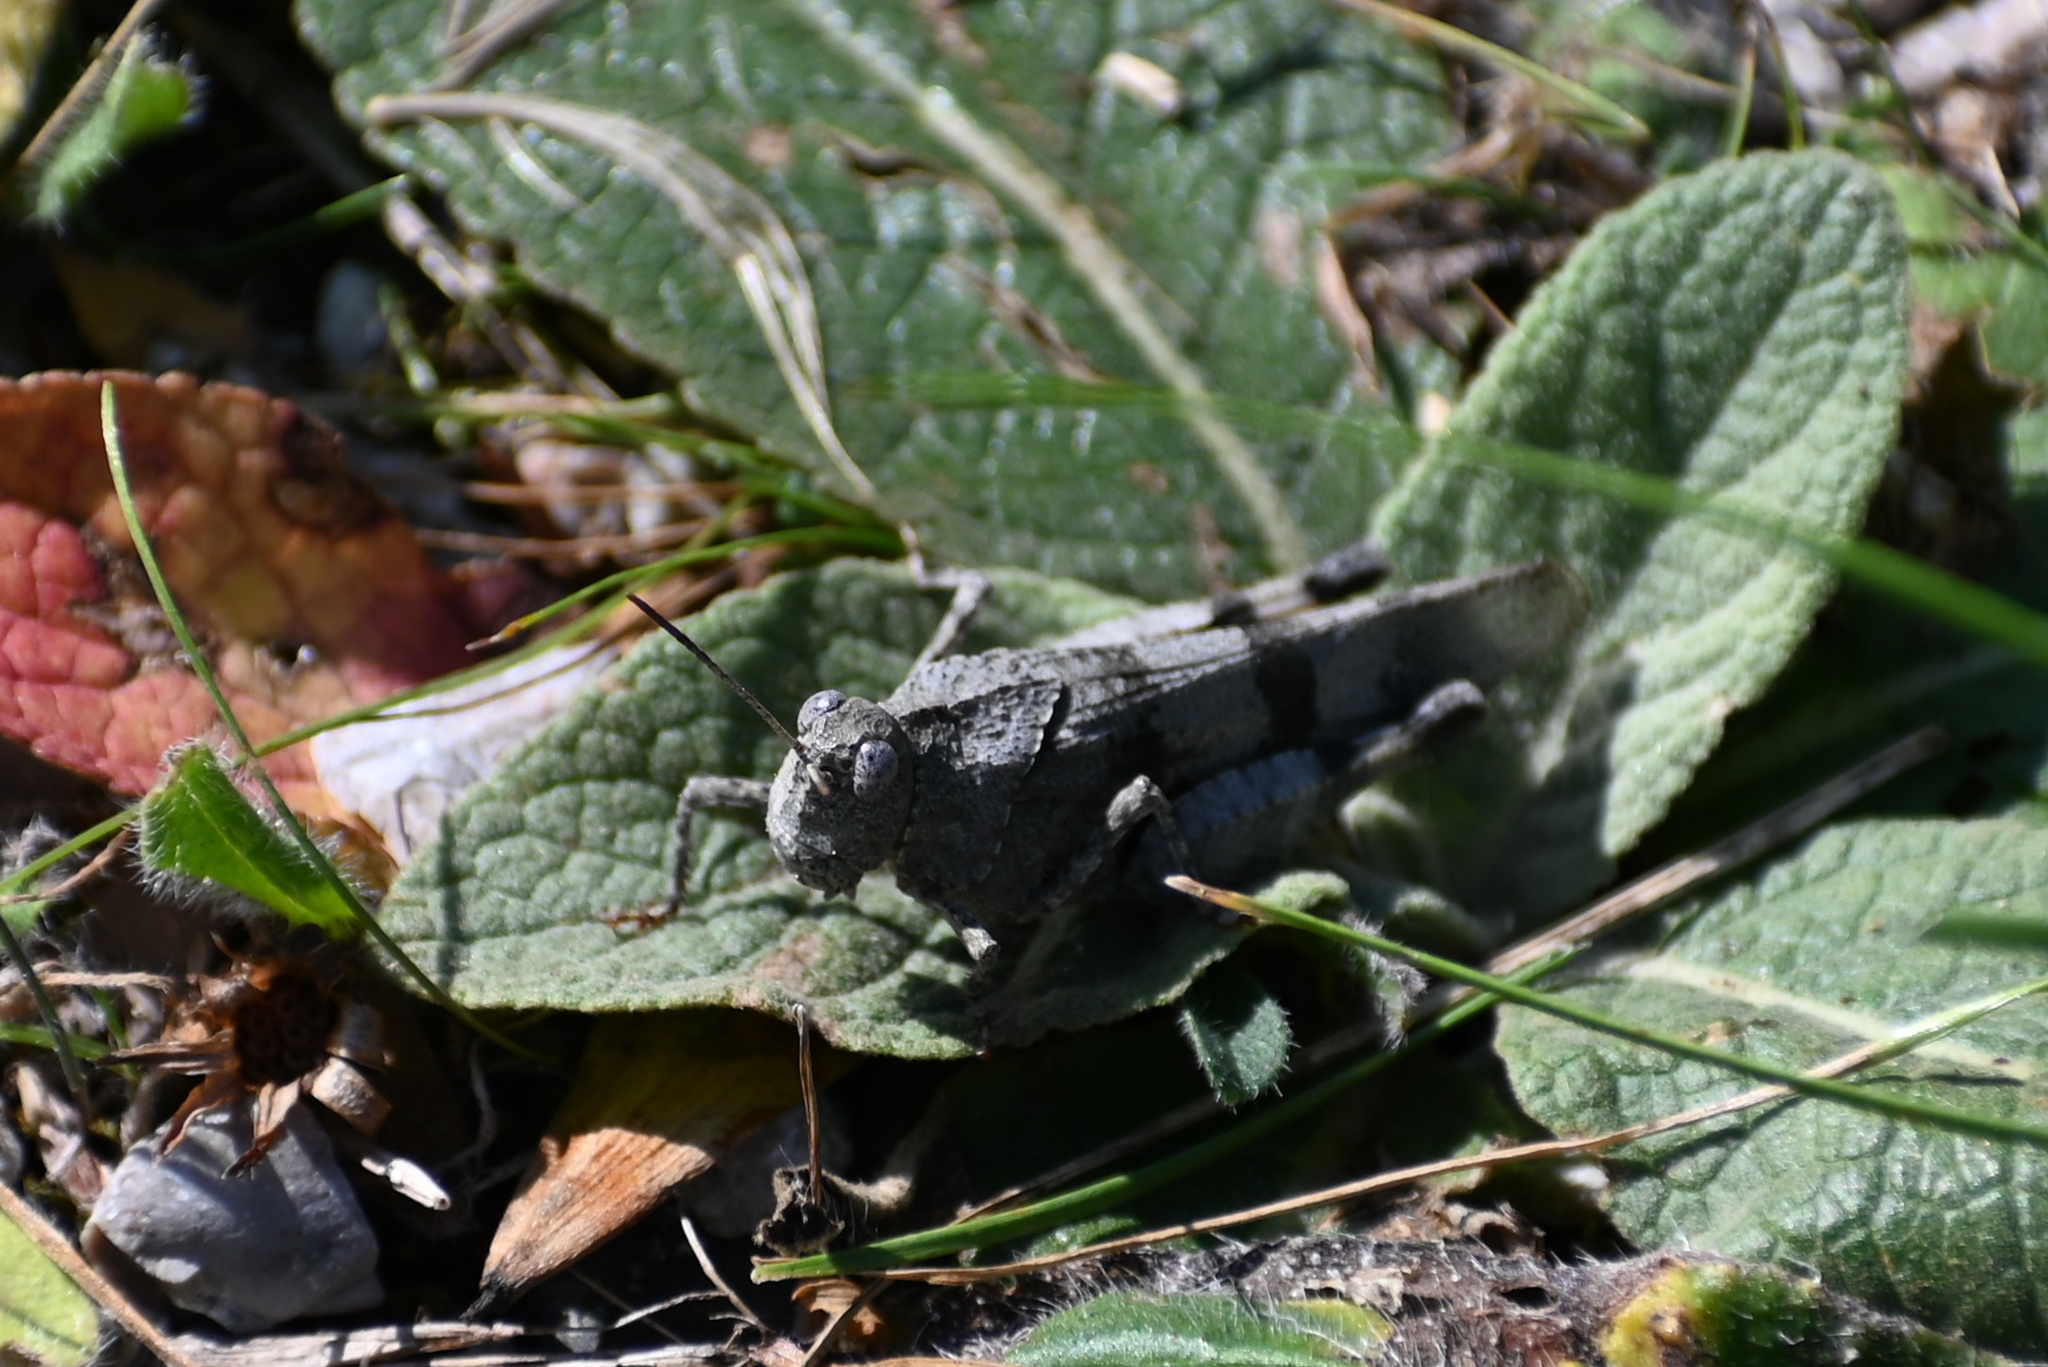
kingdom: Animalia
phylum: Arthropoda
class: Insecta
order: Orthoptera
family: Acrididae
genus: Oedipoda
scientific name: Oedipoda caerulescens
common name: Blue-winged grasshopper
